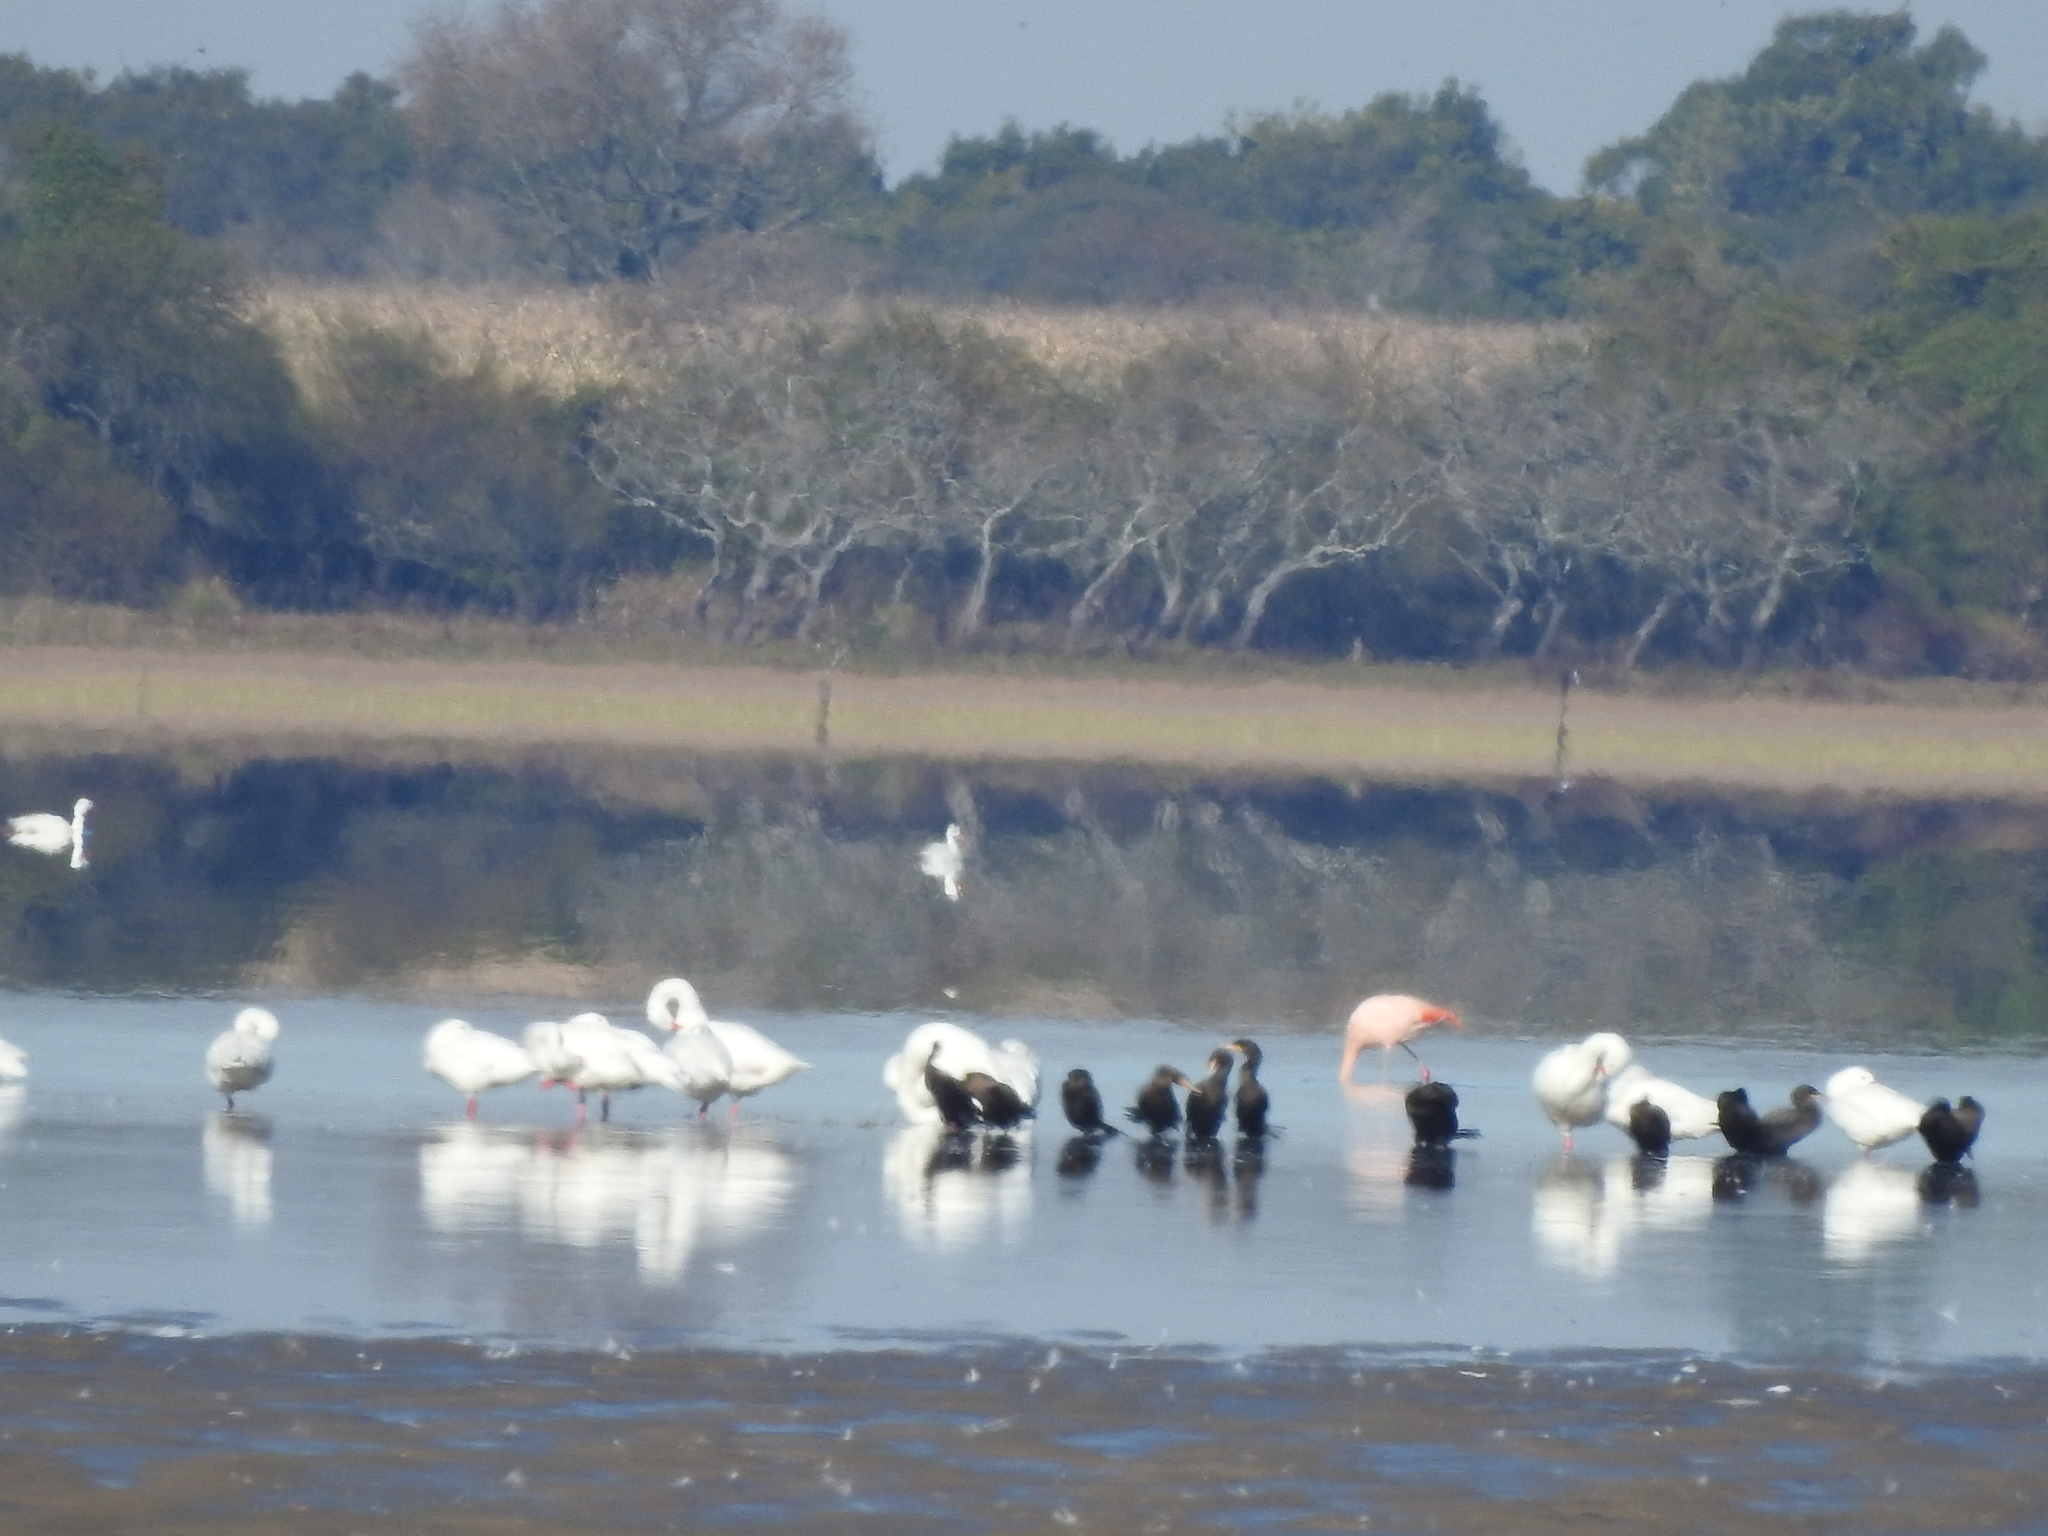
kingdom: Animalia
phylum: Chordata
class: Aves
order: Anseriformes
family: Anatidae
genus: Coscoroba
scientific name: Coscoroba coscoroba
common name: Coscoroba swan
